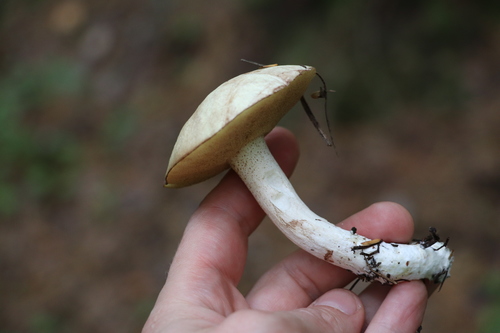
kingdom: Fungi
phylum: Basidiomycota
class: Agaricomycetes
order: Boletales
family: Suillaceae
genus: Suillus
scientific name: Suillus placidus
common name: Slippery white bolete
